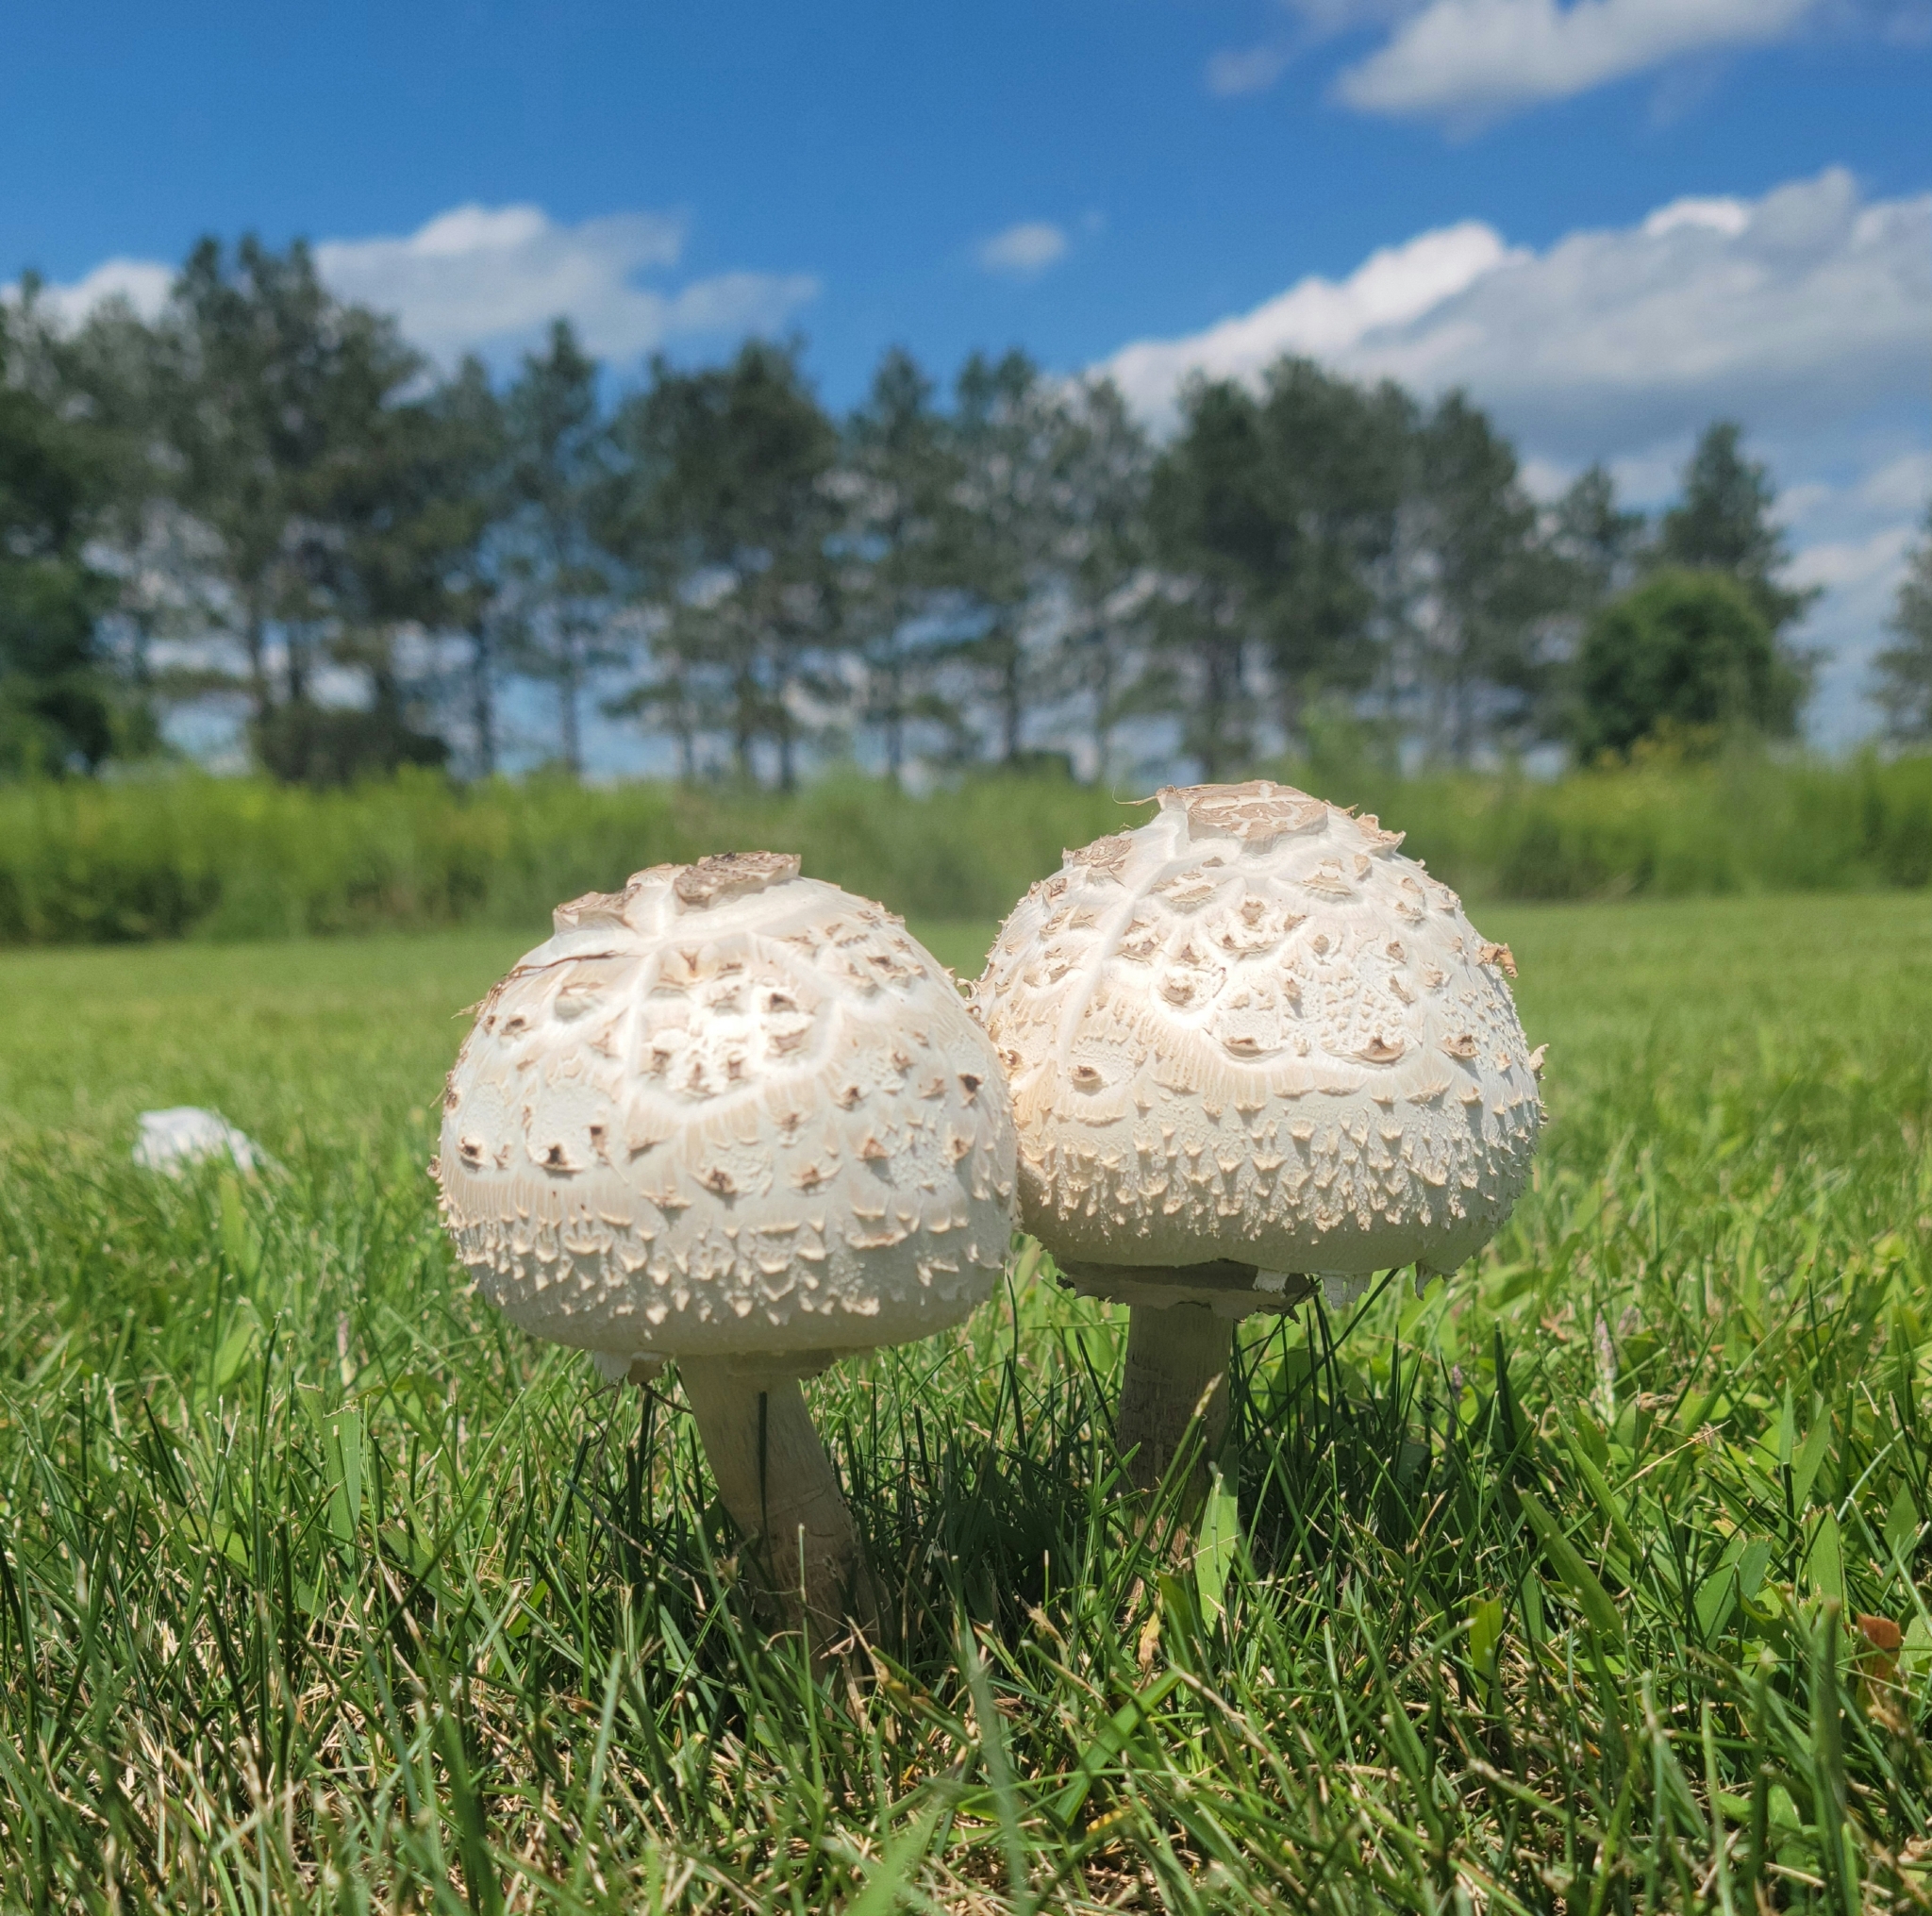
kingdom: Fungi
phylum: Basidiomycota
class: Agaricomycetes
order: Agaricales
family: Agaricaceae
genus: Chlorophyllum
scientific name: Chlorophyllum molybdites
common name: False parasol
